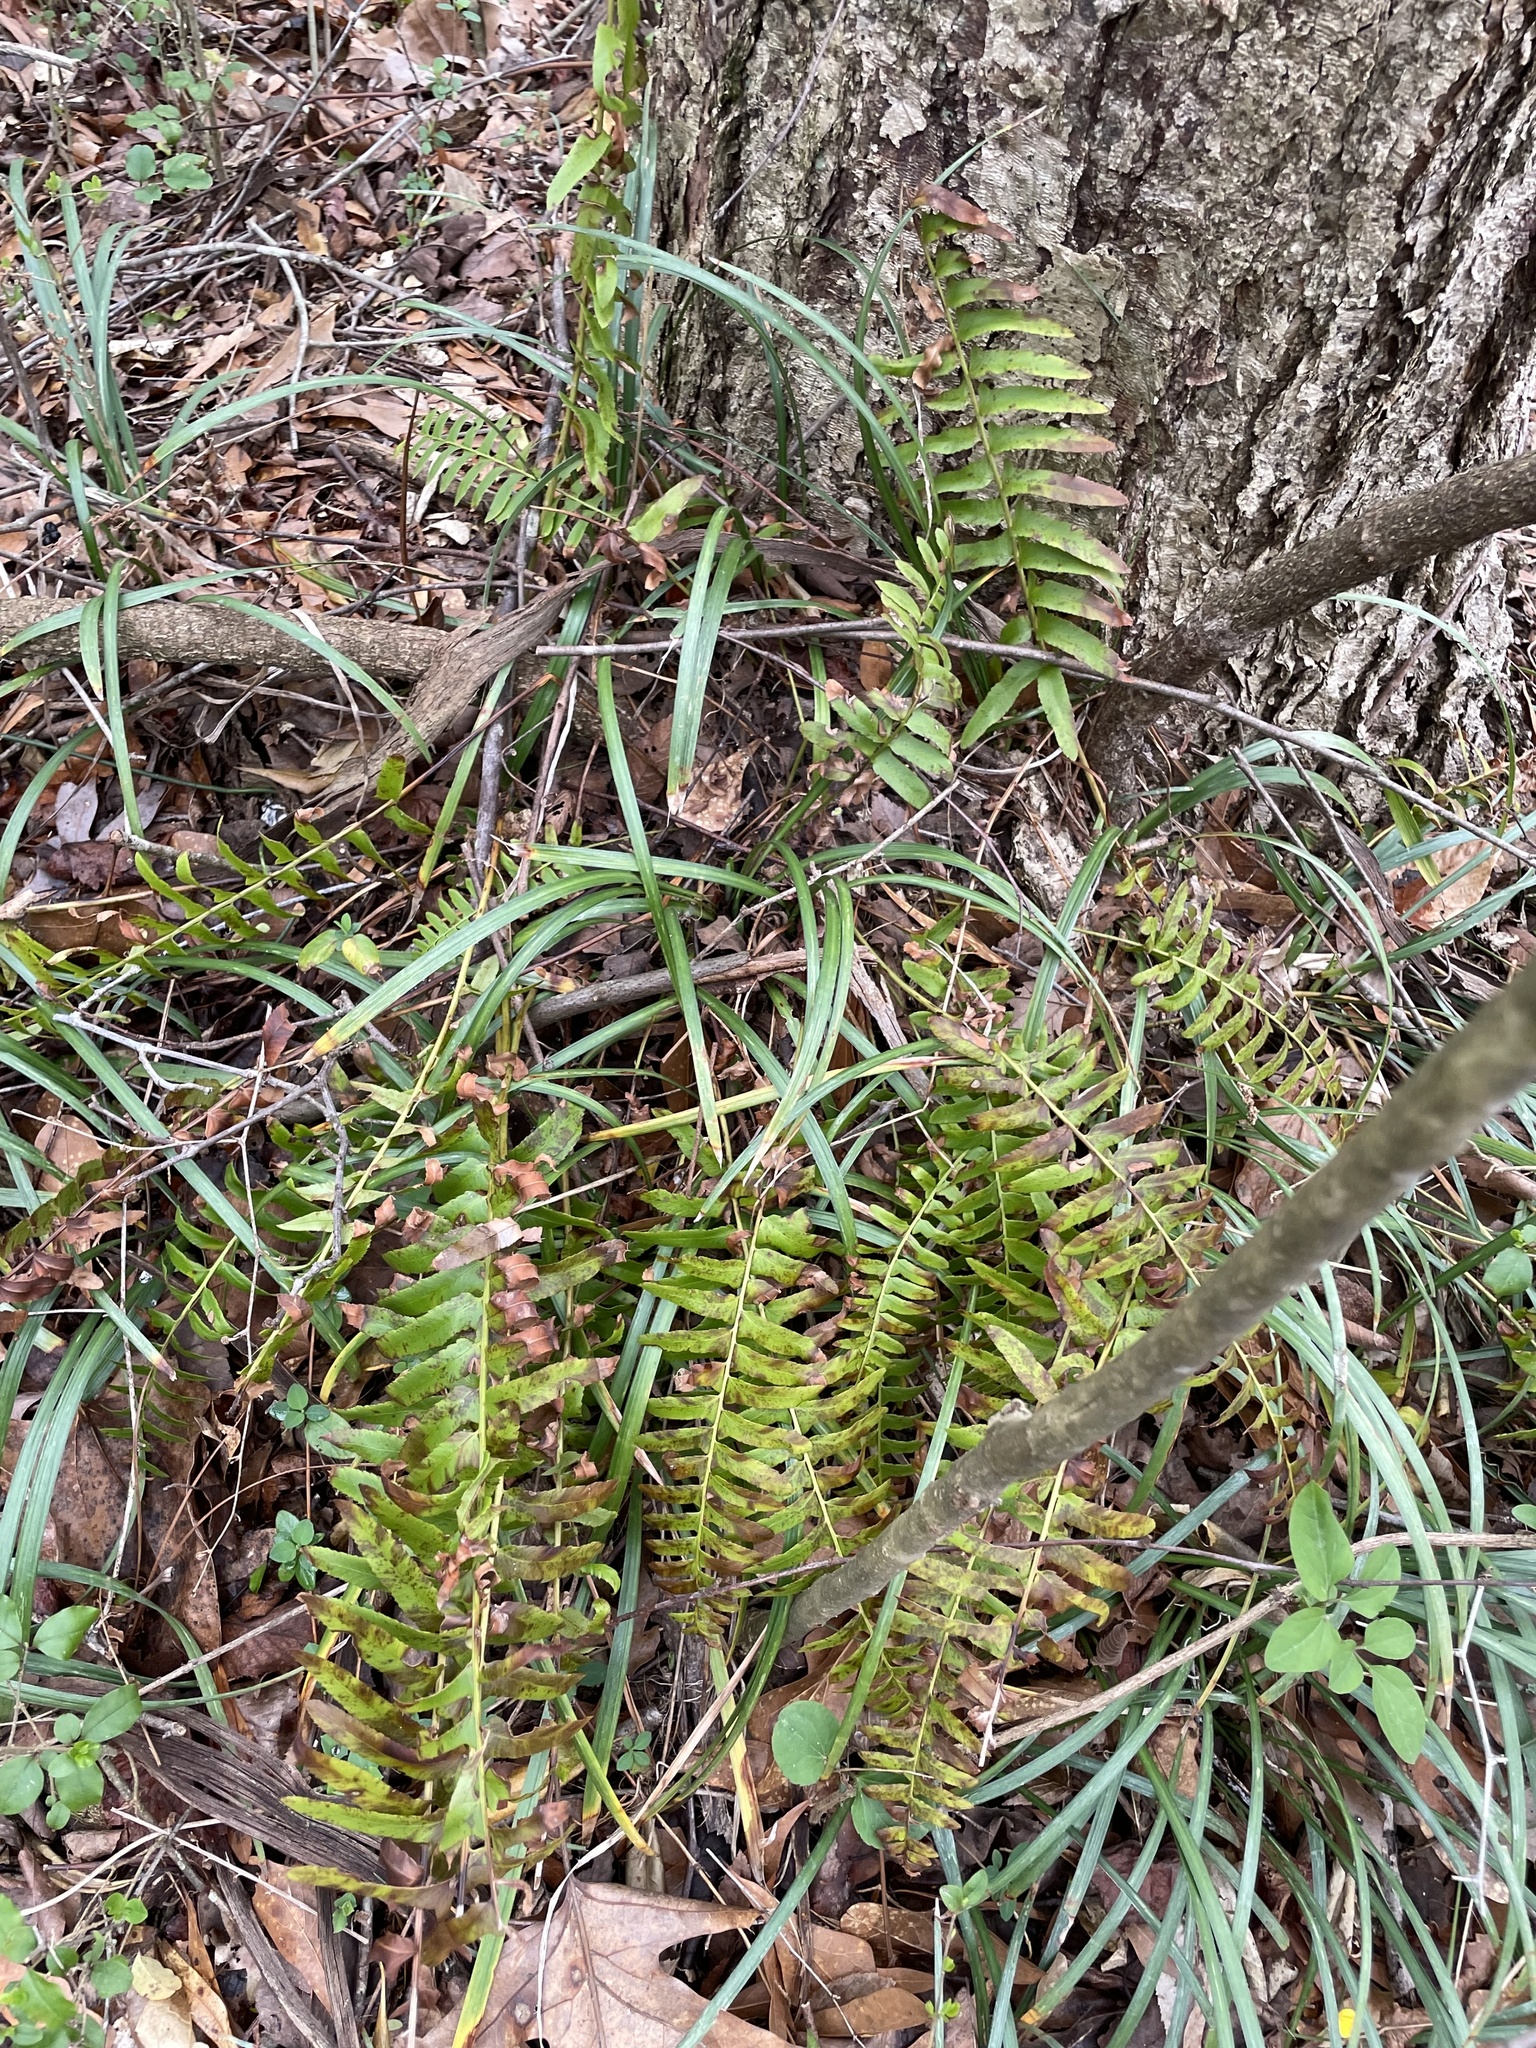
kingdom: Plantae
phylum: Tracheophyta
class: Polypodiopsida
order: Polypodiales
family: Dryopteridaceae
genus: Polystichum
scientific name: Polystichum acrostichoides
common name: Christmas fern
